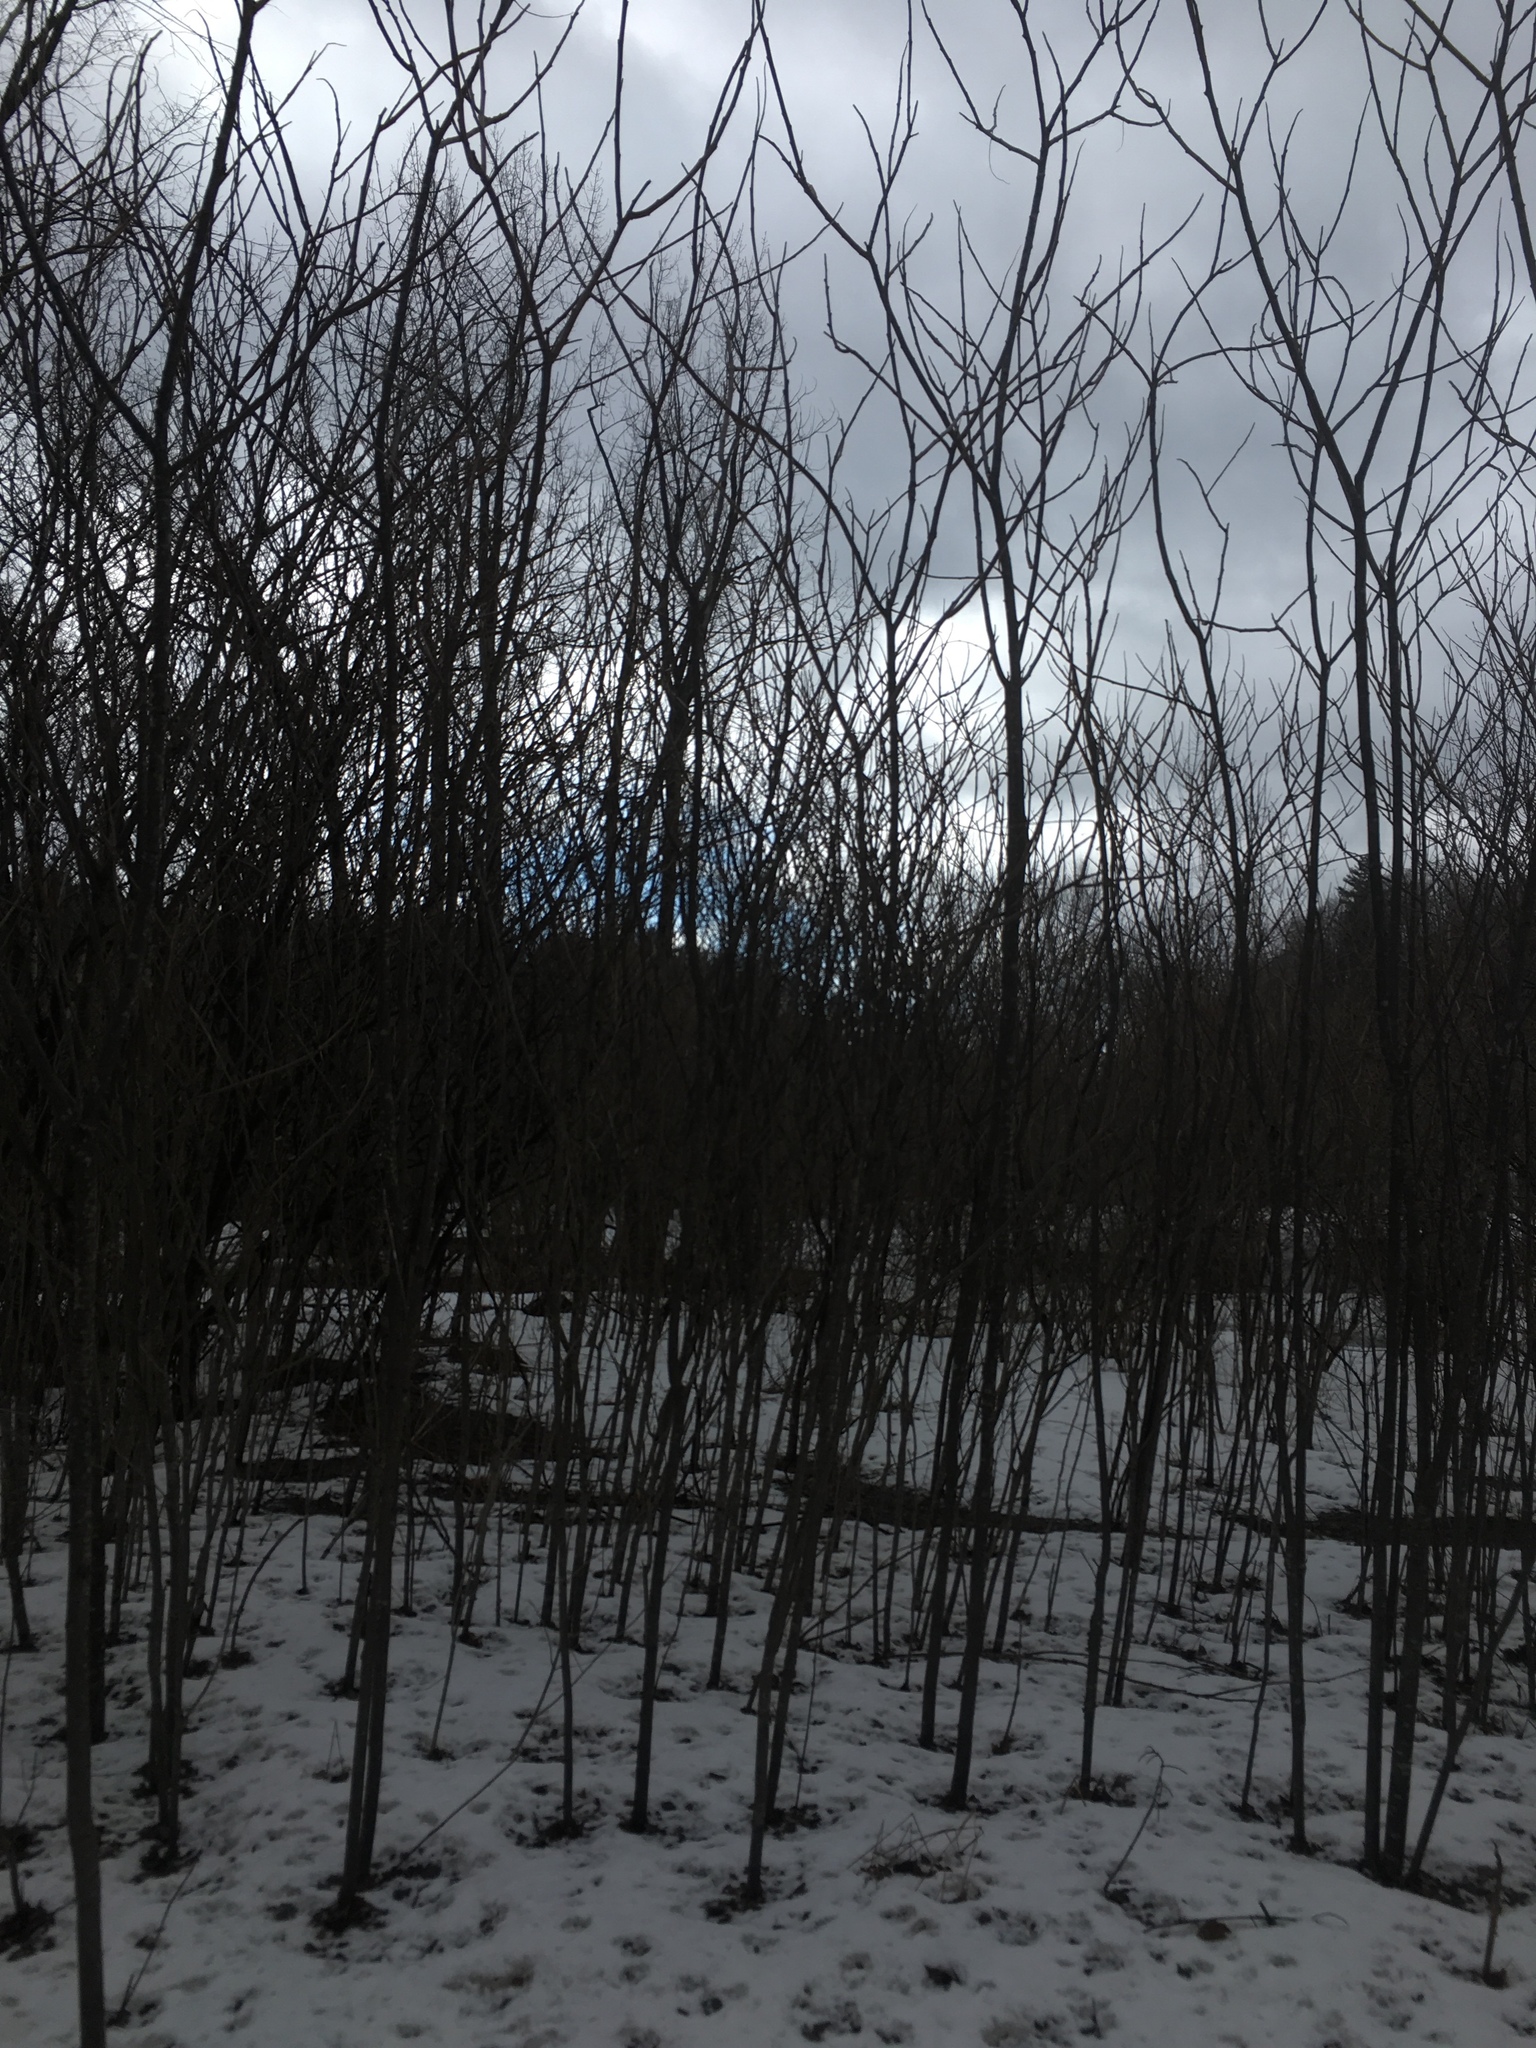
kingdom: Plantae
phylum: Tracheophyta
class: Magnoliopsida
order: Sapindales
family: Anacardiaceae
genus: Rhus
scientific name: Rhus typhina
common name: Staghorn sumac
